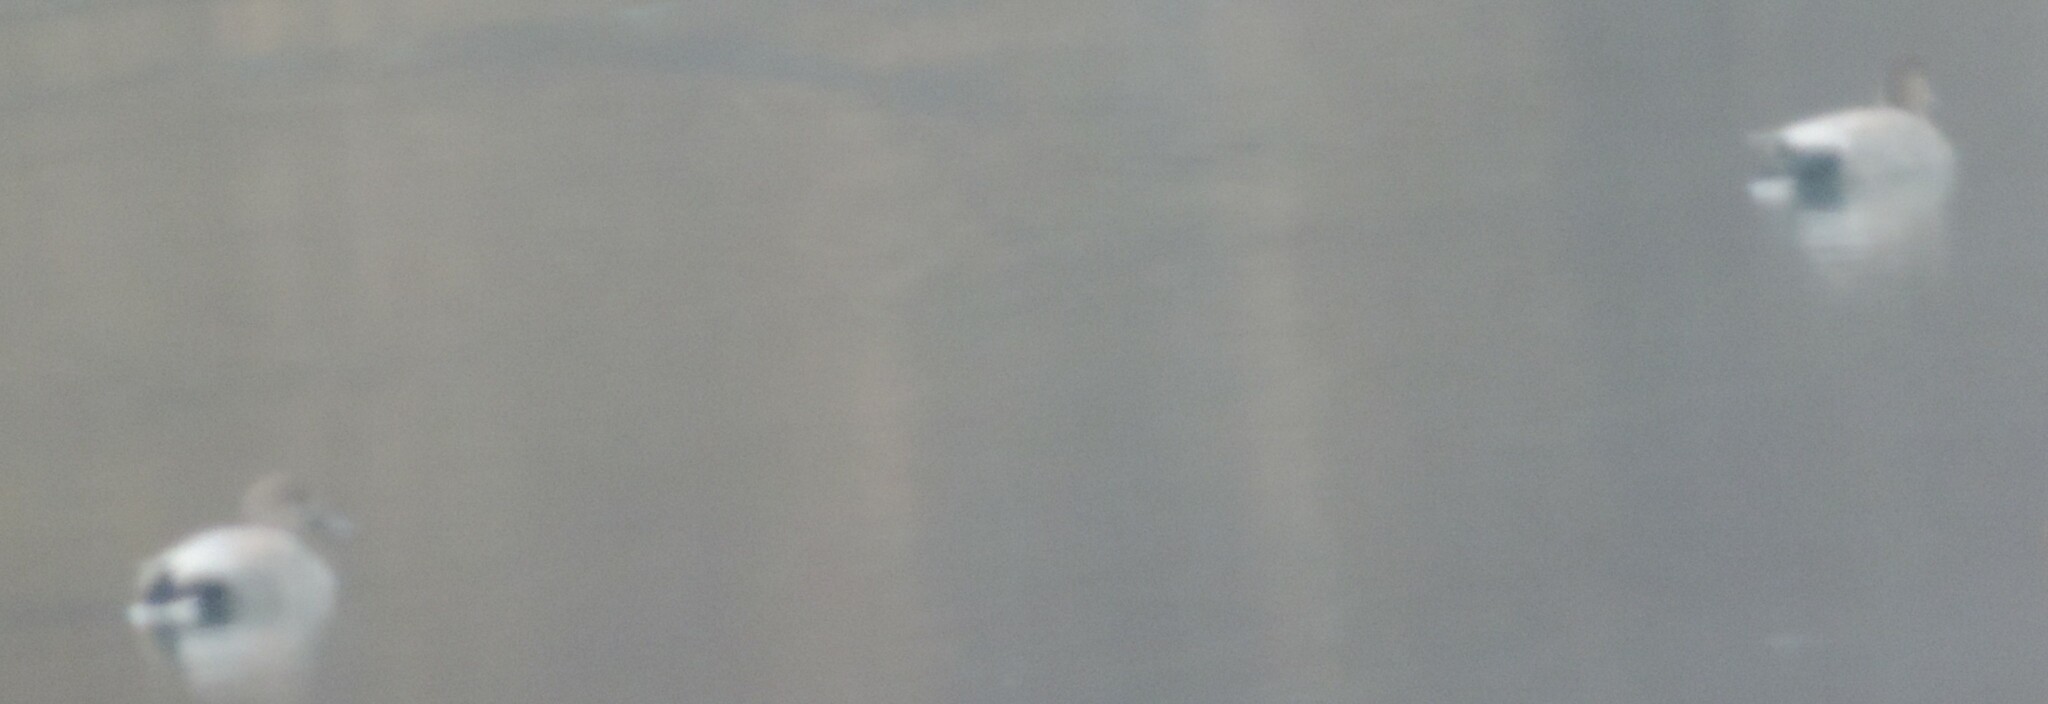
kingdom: Animalia
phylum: Chordata
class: Aves
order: Anseriformes
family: Anatidae
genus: Mareca
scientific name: Mareca strepera
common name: Gadwall
